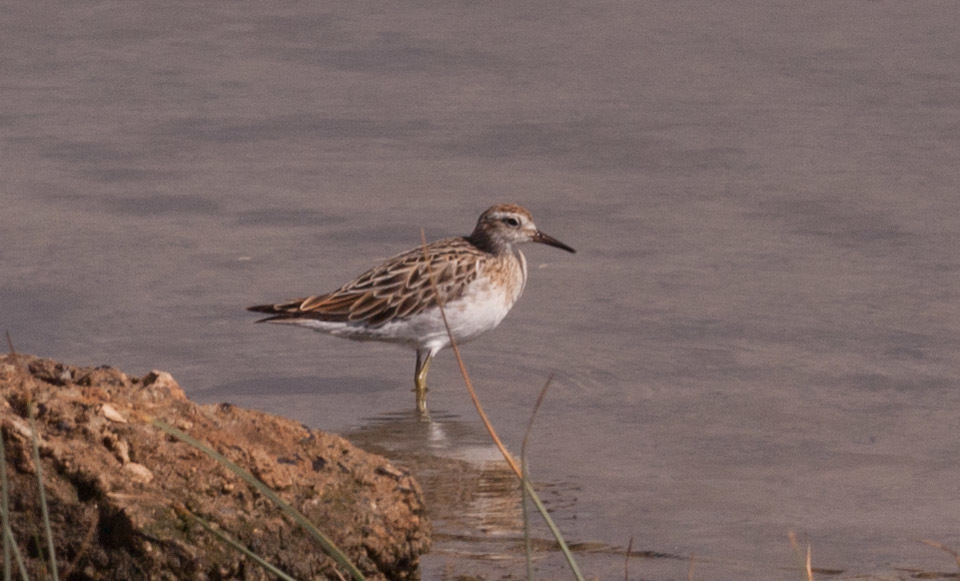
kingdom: Animalia
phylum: Chordata
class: Aves
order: Charadriiformes
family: Scolopacidae
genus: Calidris
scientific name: Calidris acuminata
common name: Sharp-tailed sandpiper
